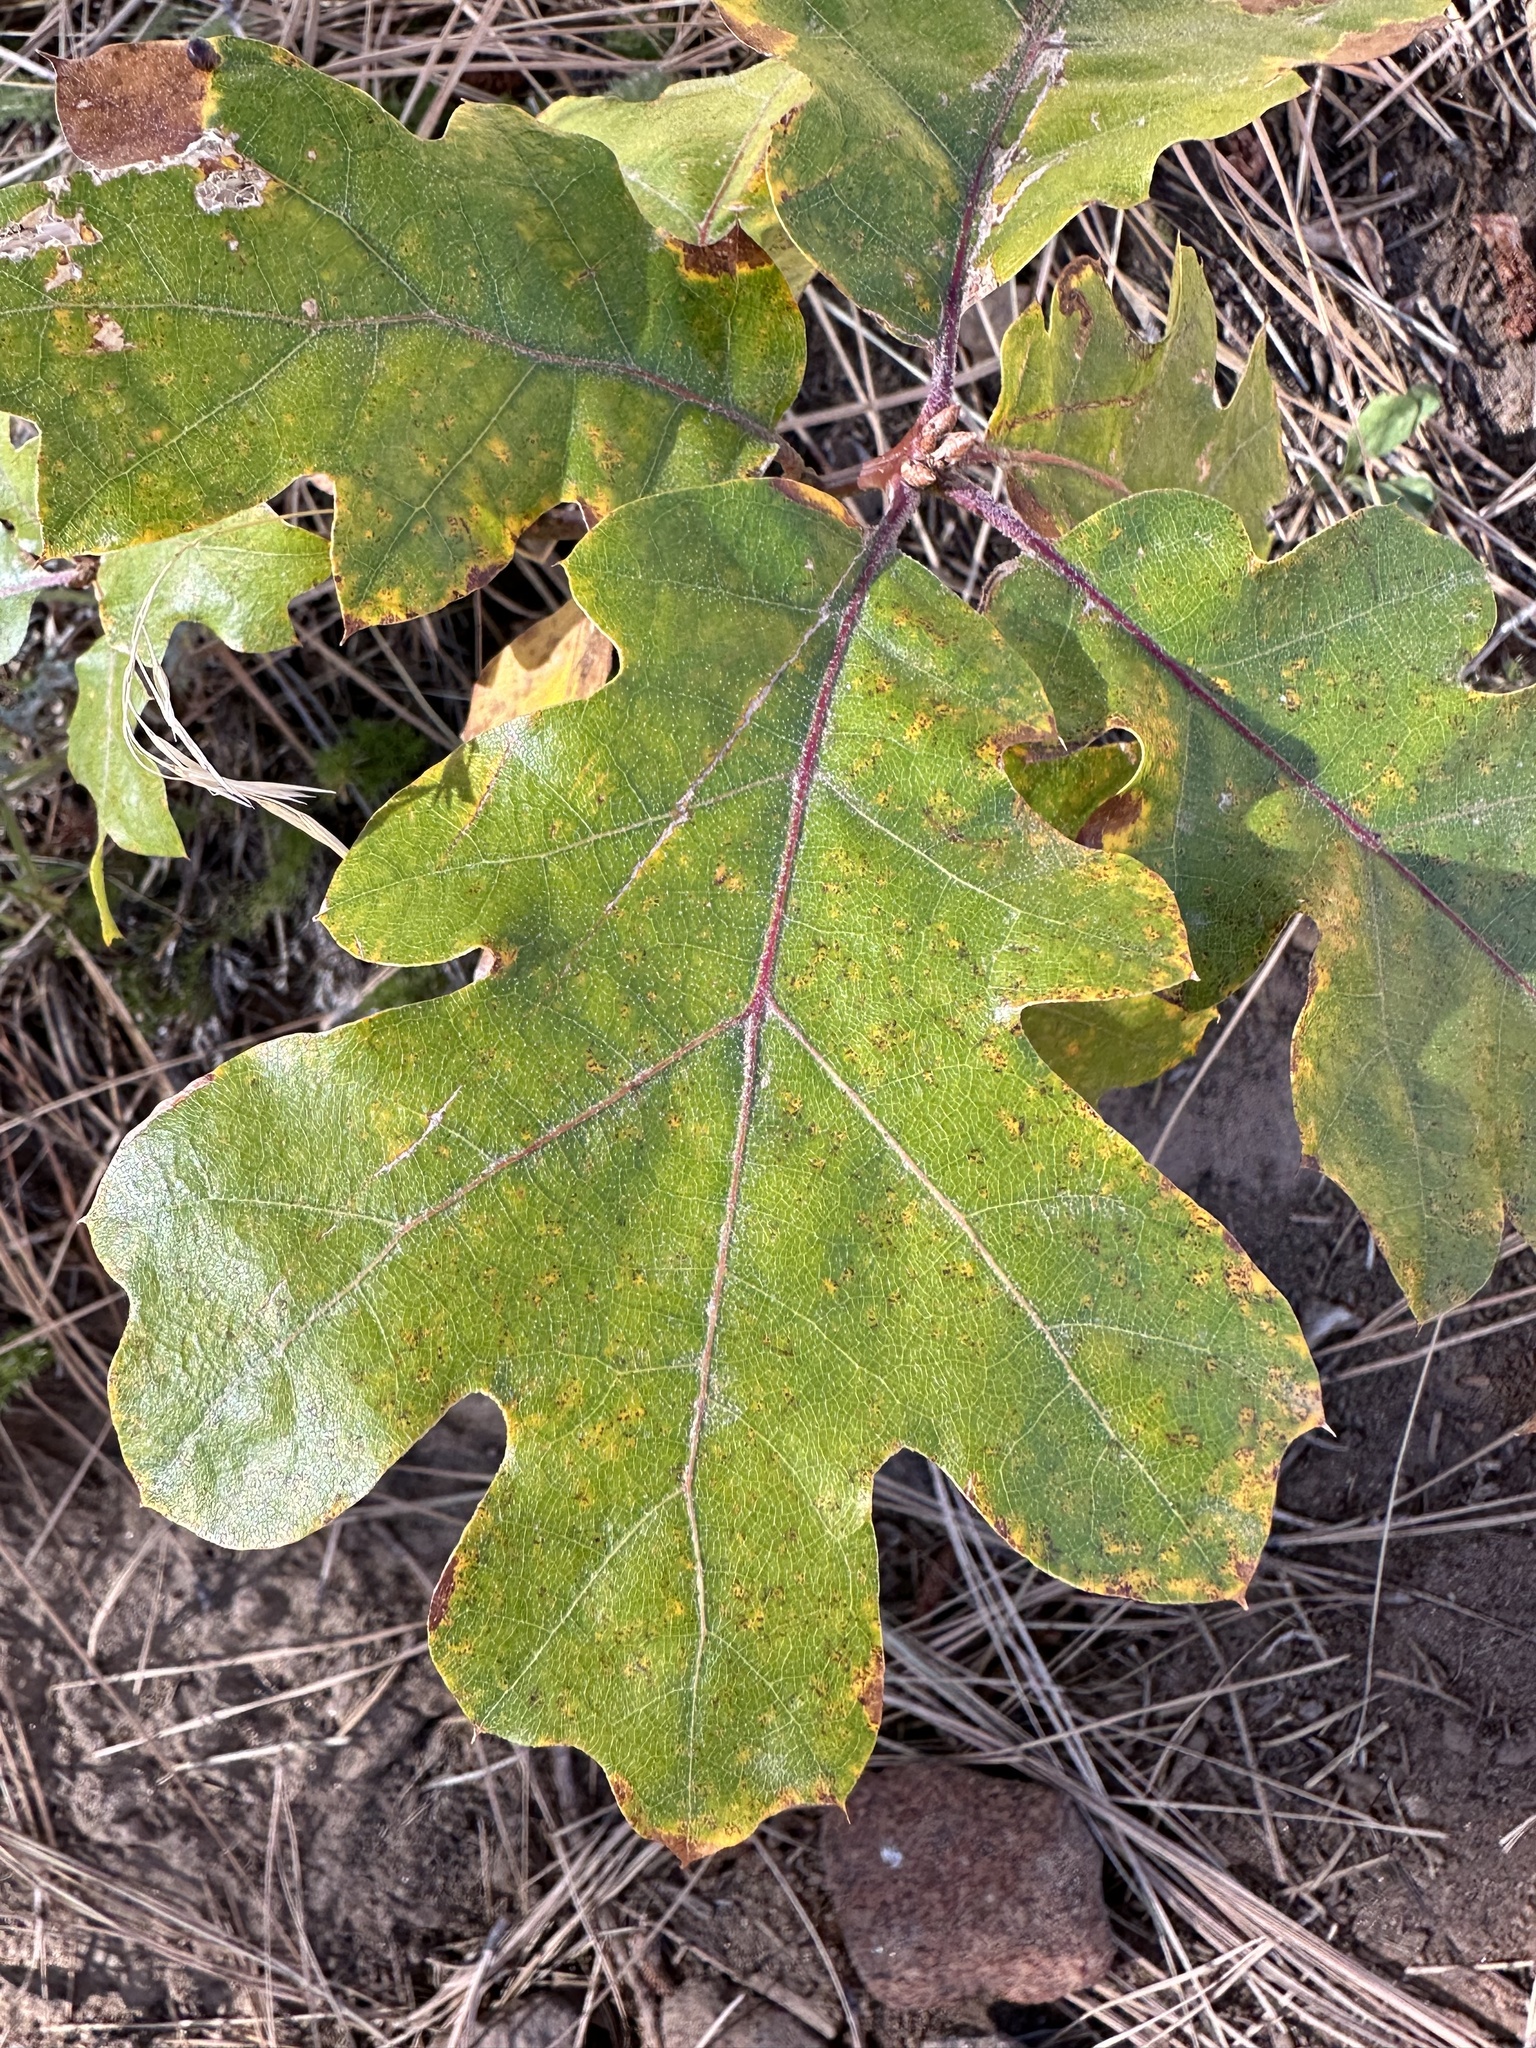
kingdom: Plantae
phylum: Tracheophyta
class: Magnoliopsida
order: Fagales
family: Fagaceae
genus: Quercus
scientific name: Quercus kelloggii
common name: California black oak
